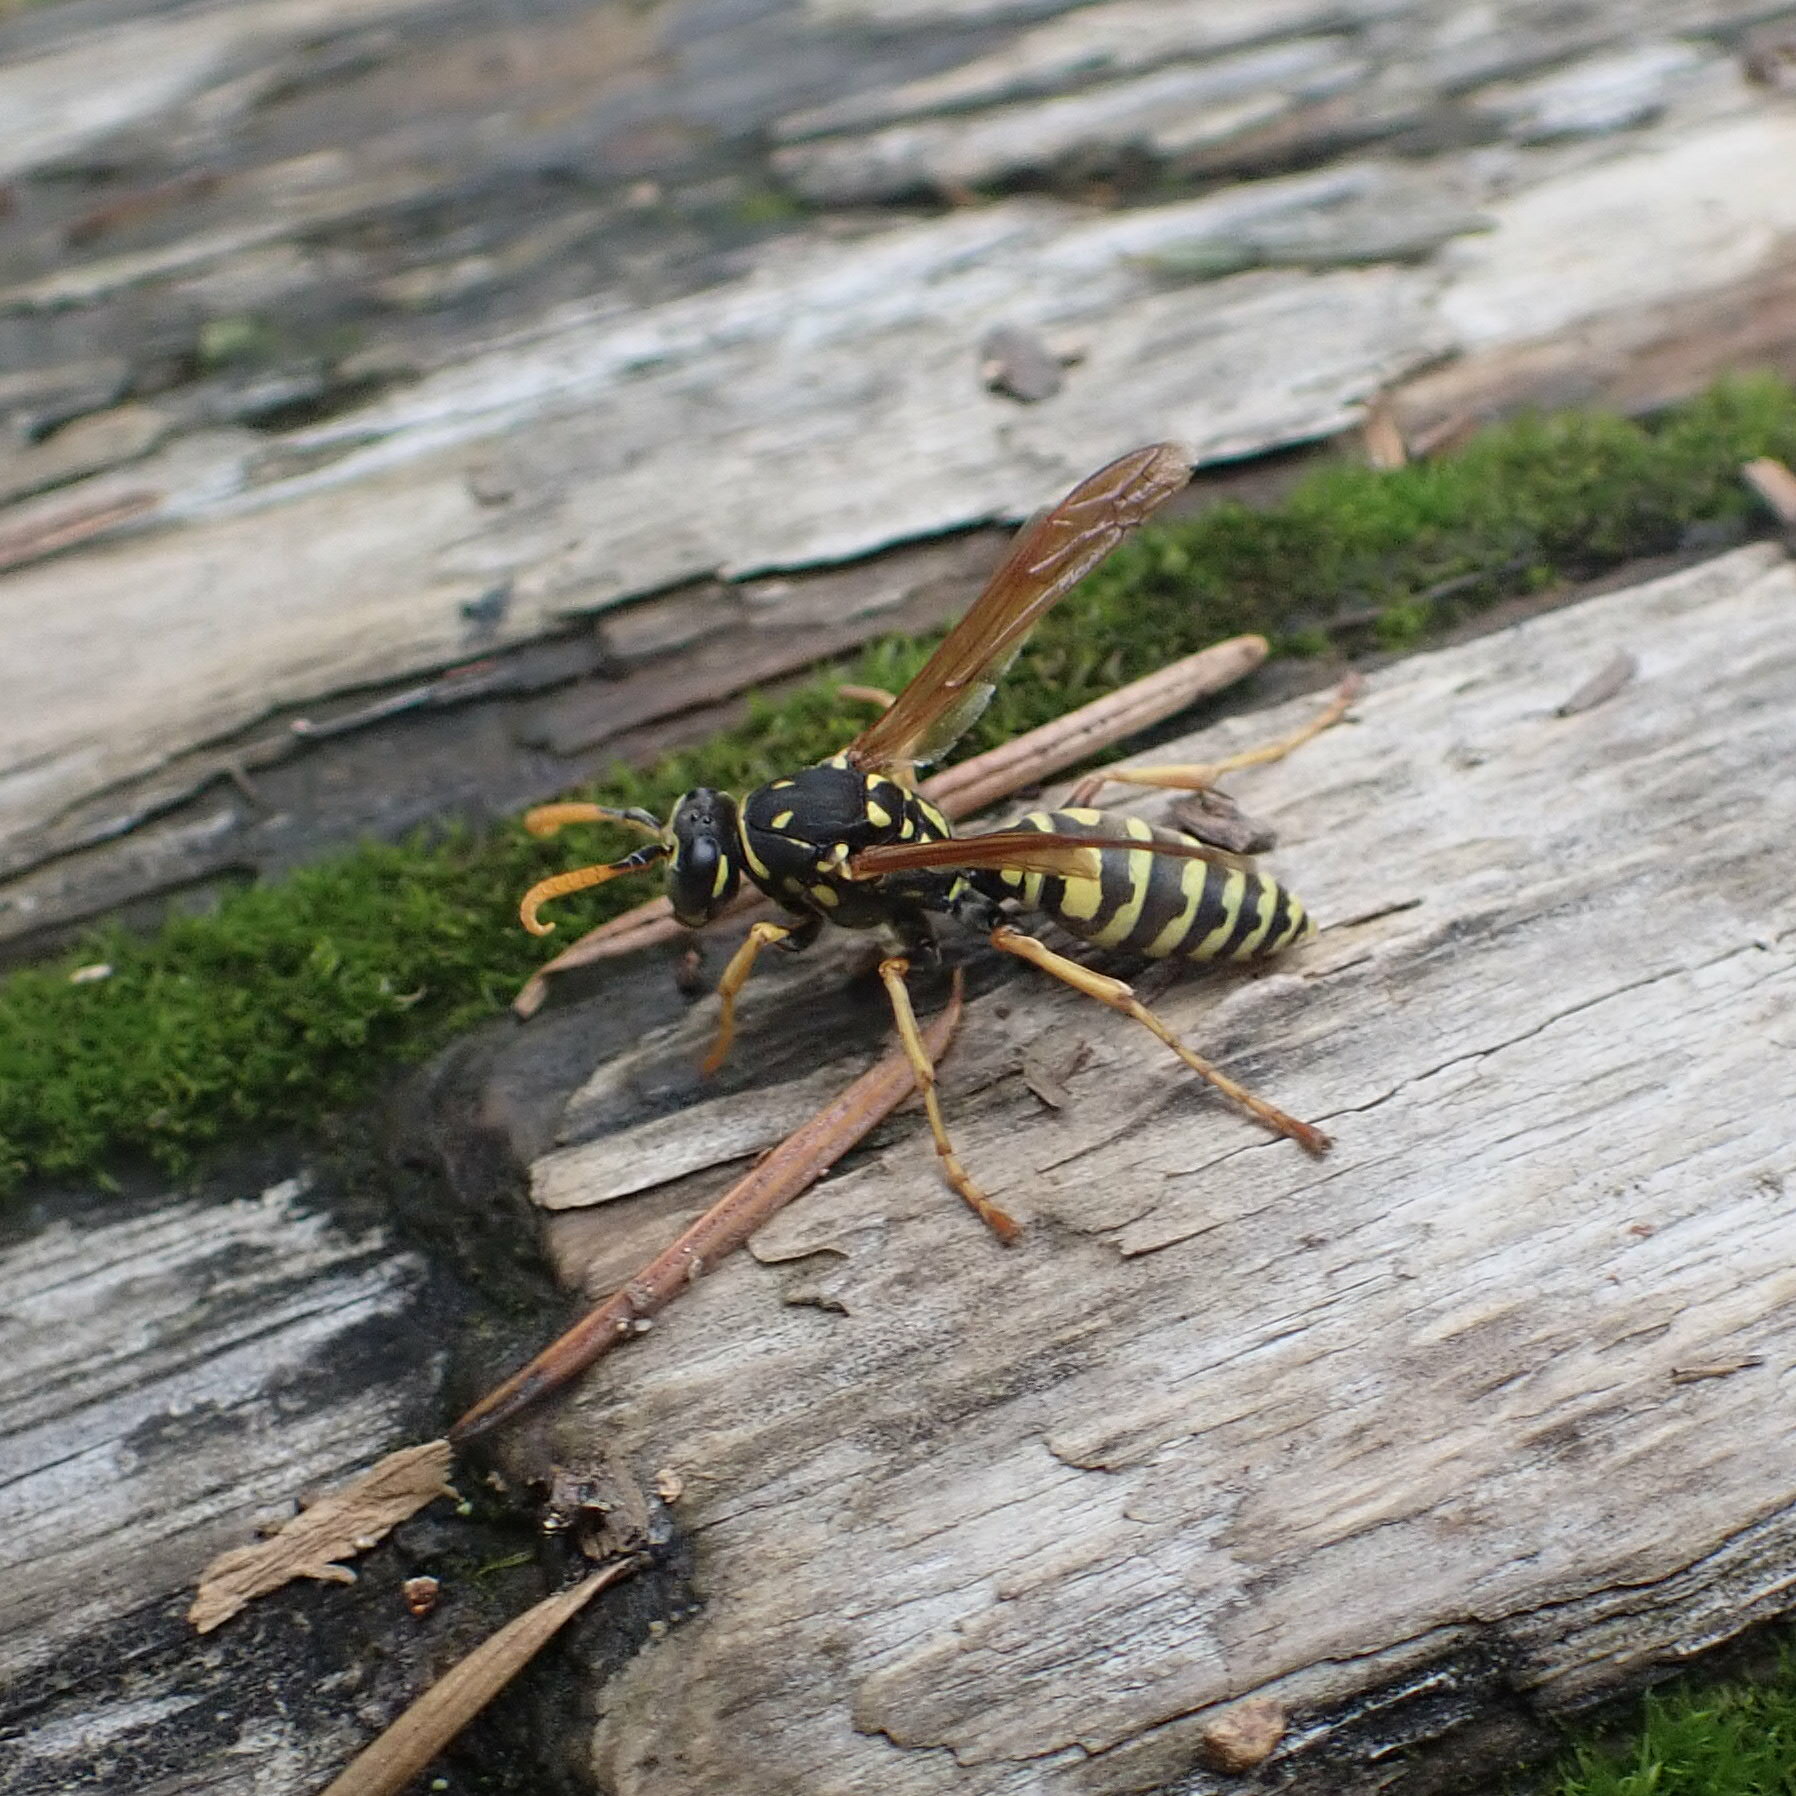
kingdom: Animalia
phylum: Arthropoda
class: Insecta
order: Hymenoptera
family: Eumenidae
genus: Polistes
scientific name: Polistes dominula
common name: Paper wasp
